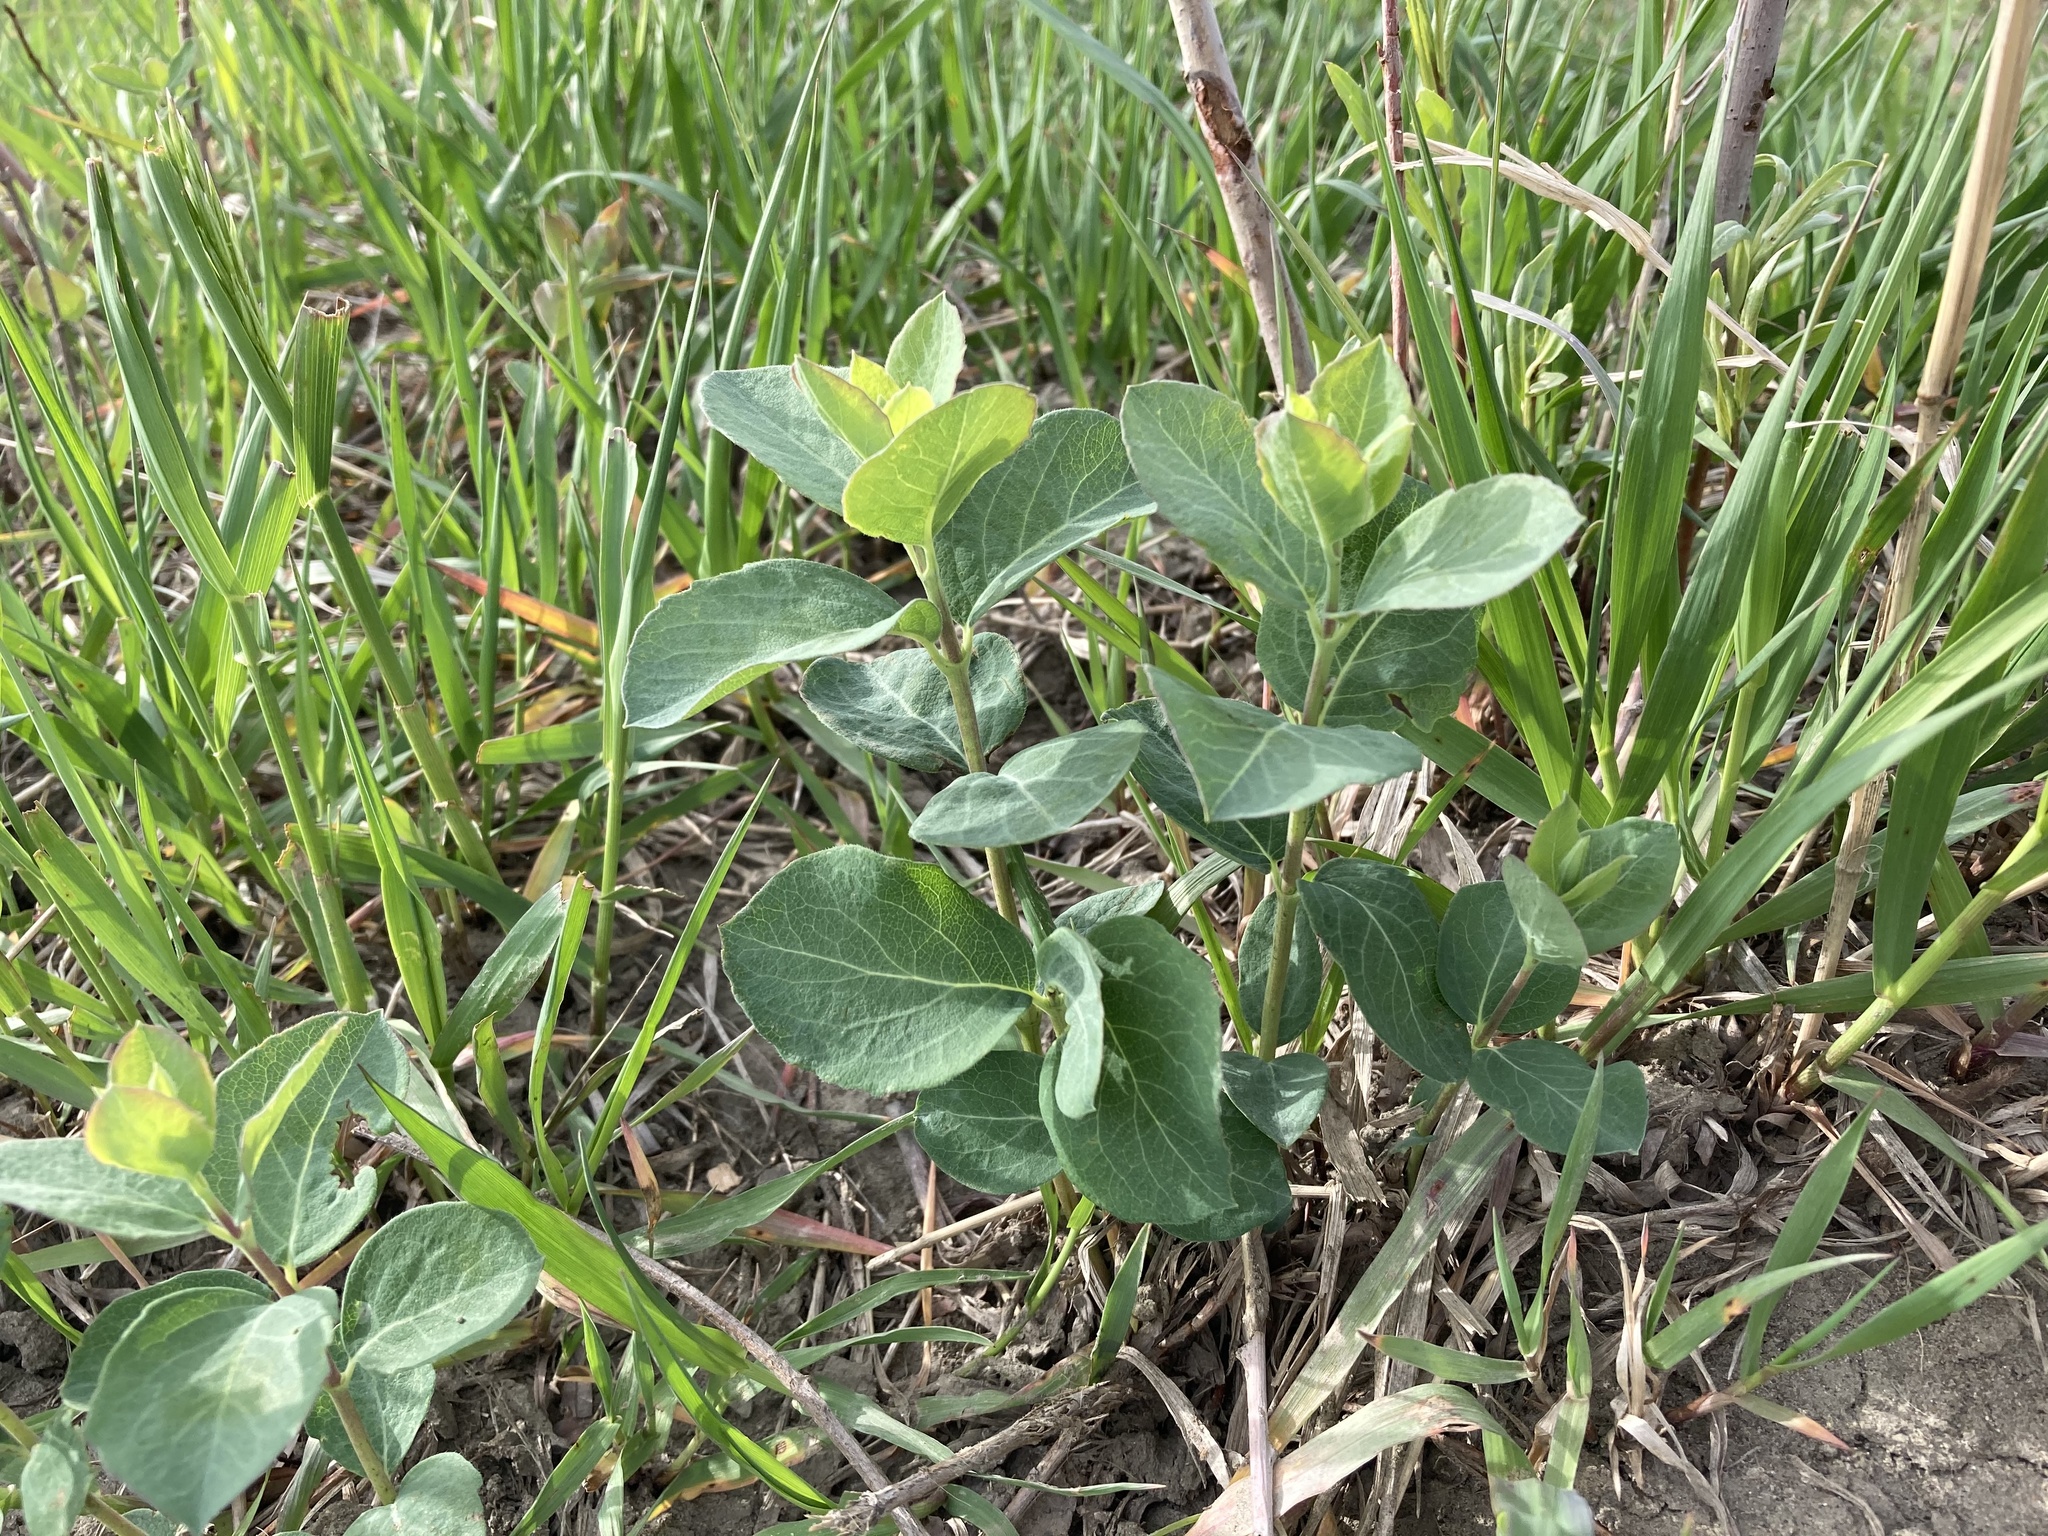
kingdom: Plantae
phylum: Tracheophyta
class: Magnoliopsida
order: Dipsacales
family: Caprifoliaceae
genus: Symphoricarpos
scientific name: Symphoricarpos occidentalis
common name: Wolfberry
